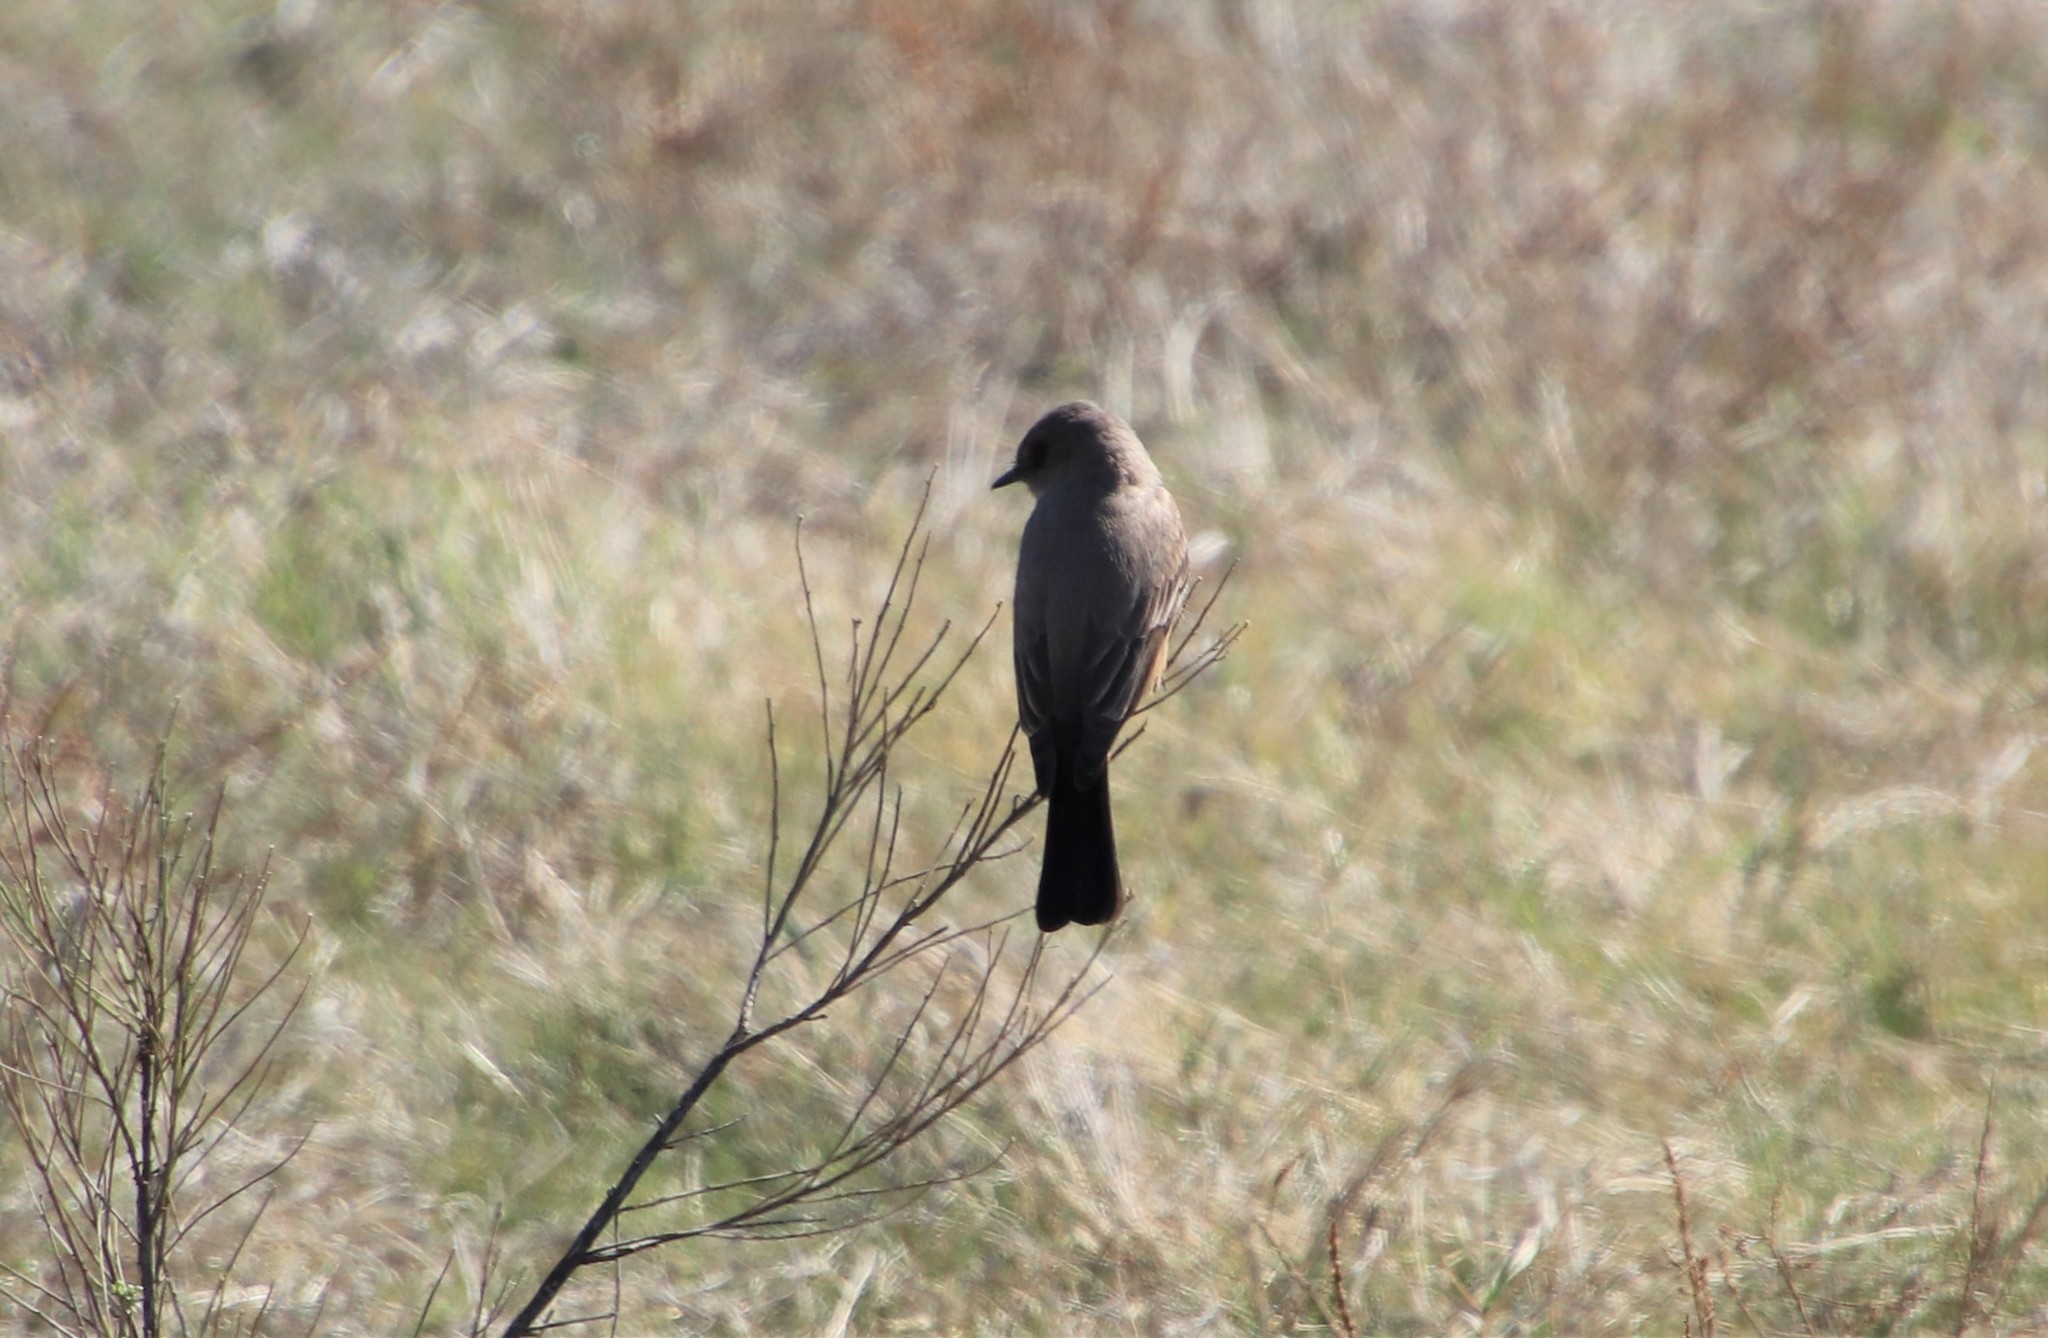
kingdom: Animalia
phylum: Chordata
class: Aves
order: Passeriformes
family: Tyrannidae
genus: Sayornis
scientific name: Sayornis saya
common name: Say's phoebe
